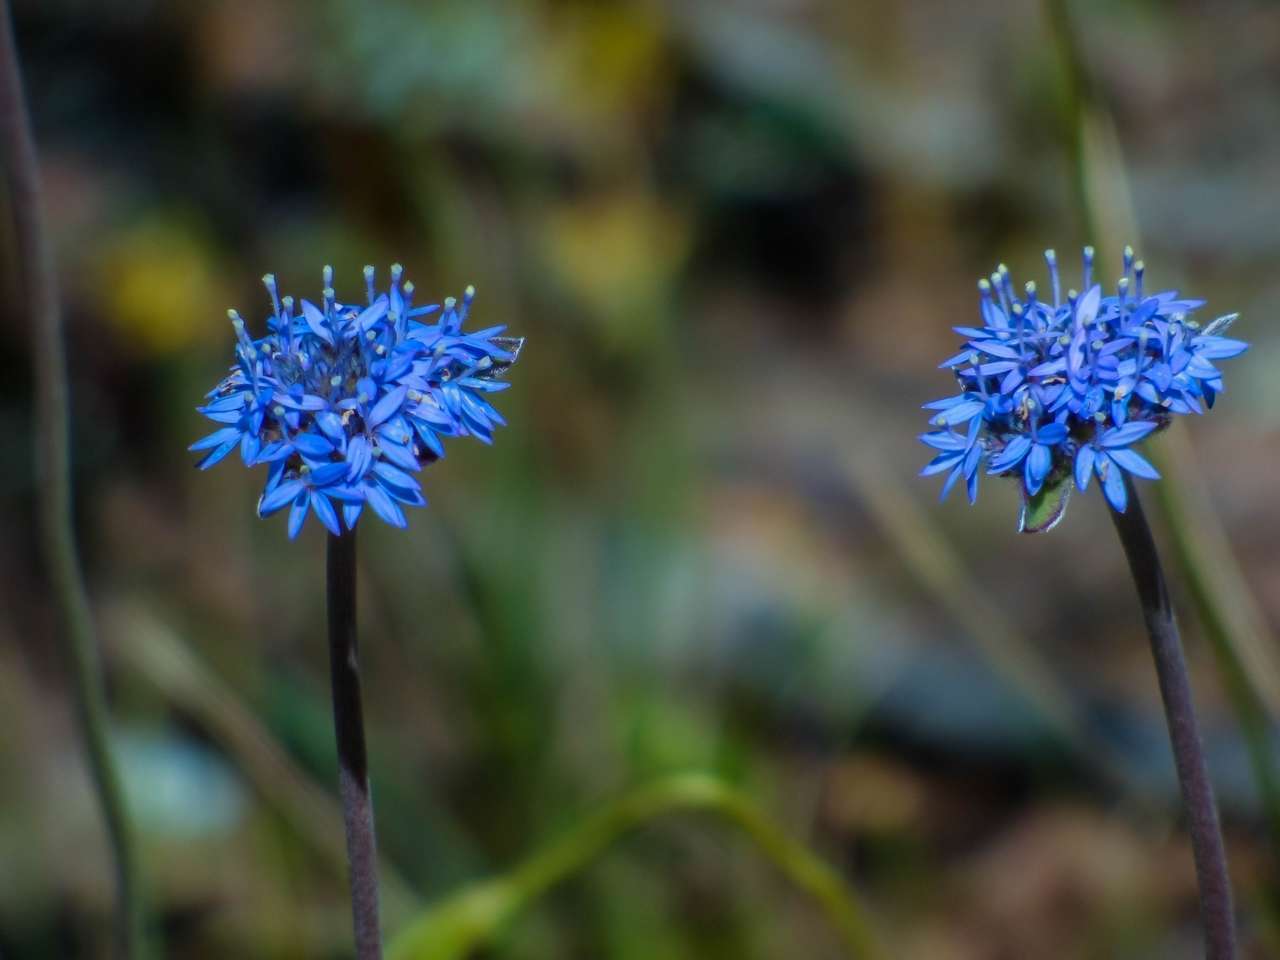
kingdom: Plantae
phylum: Tracheophyta
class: Magnoliopsida
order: Asterales
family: Goodeniaceae
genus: Brunonia
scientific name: Brunonia australis
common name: Blue pincushion
